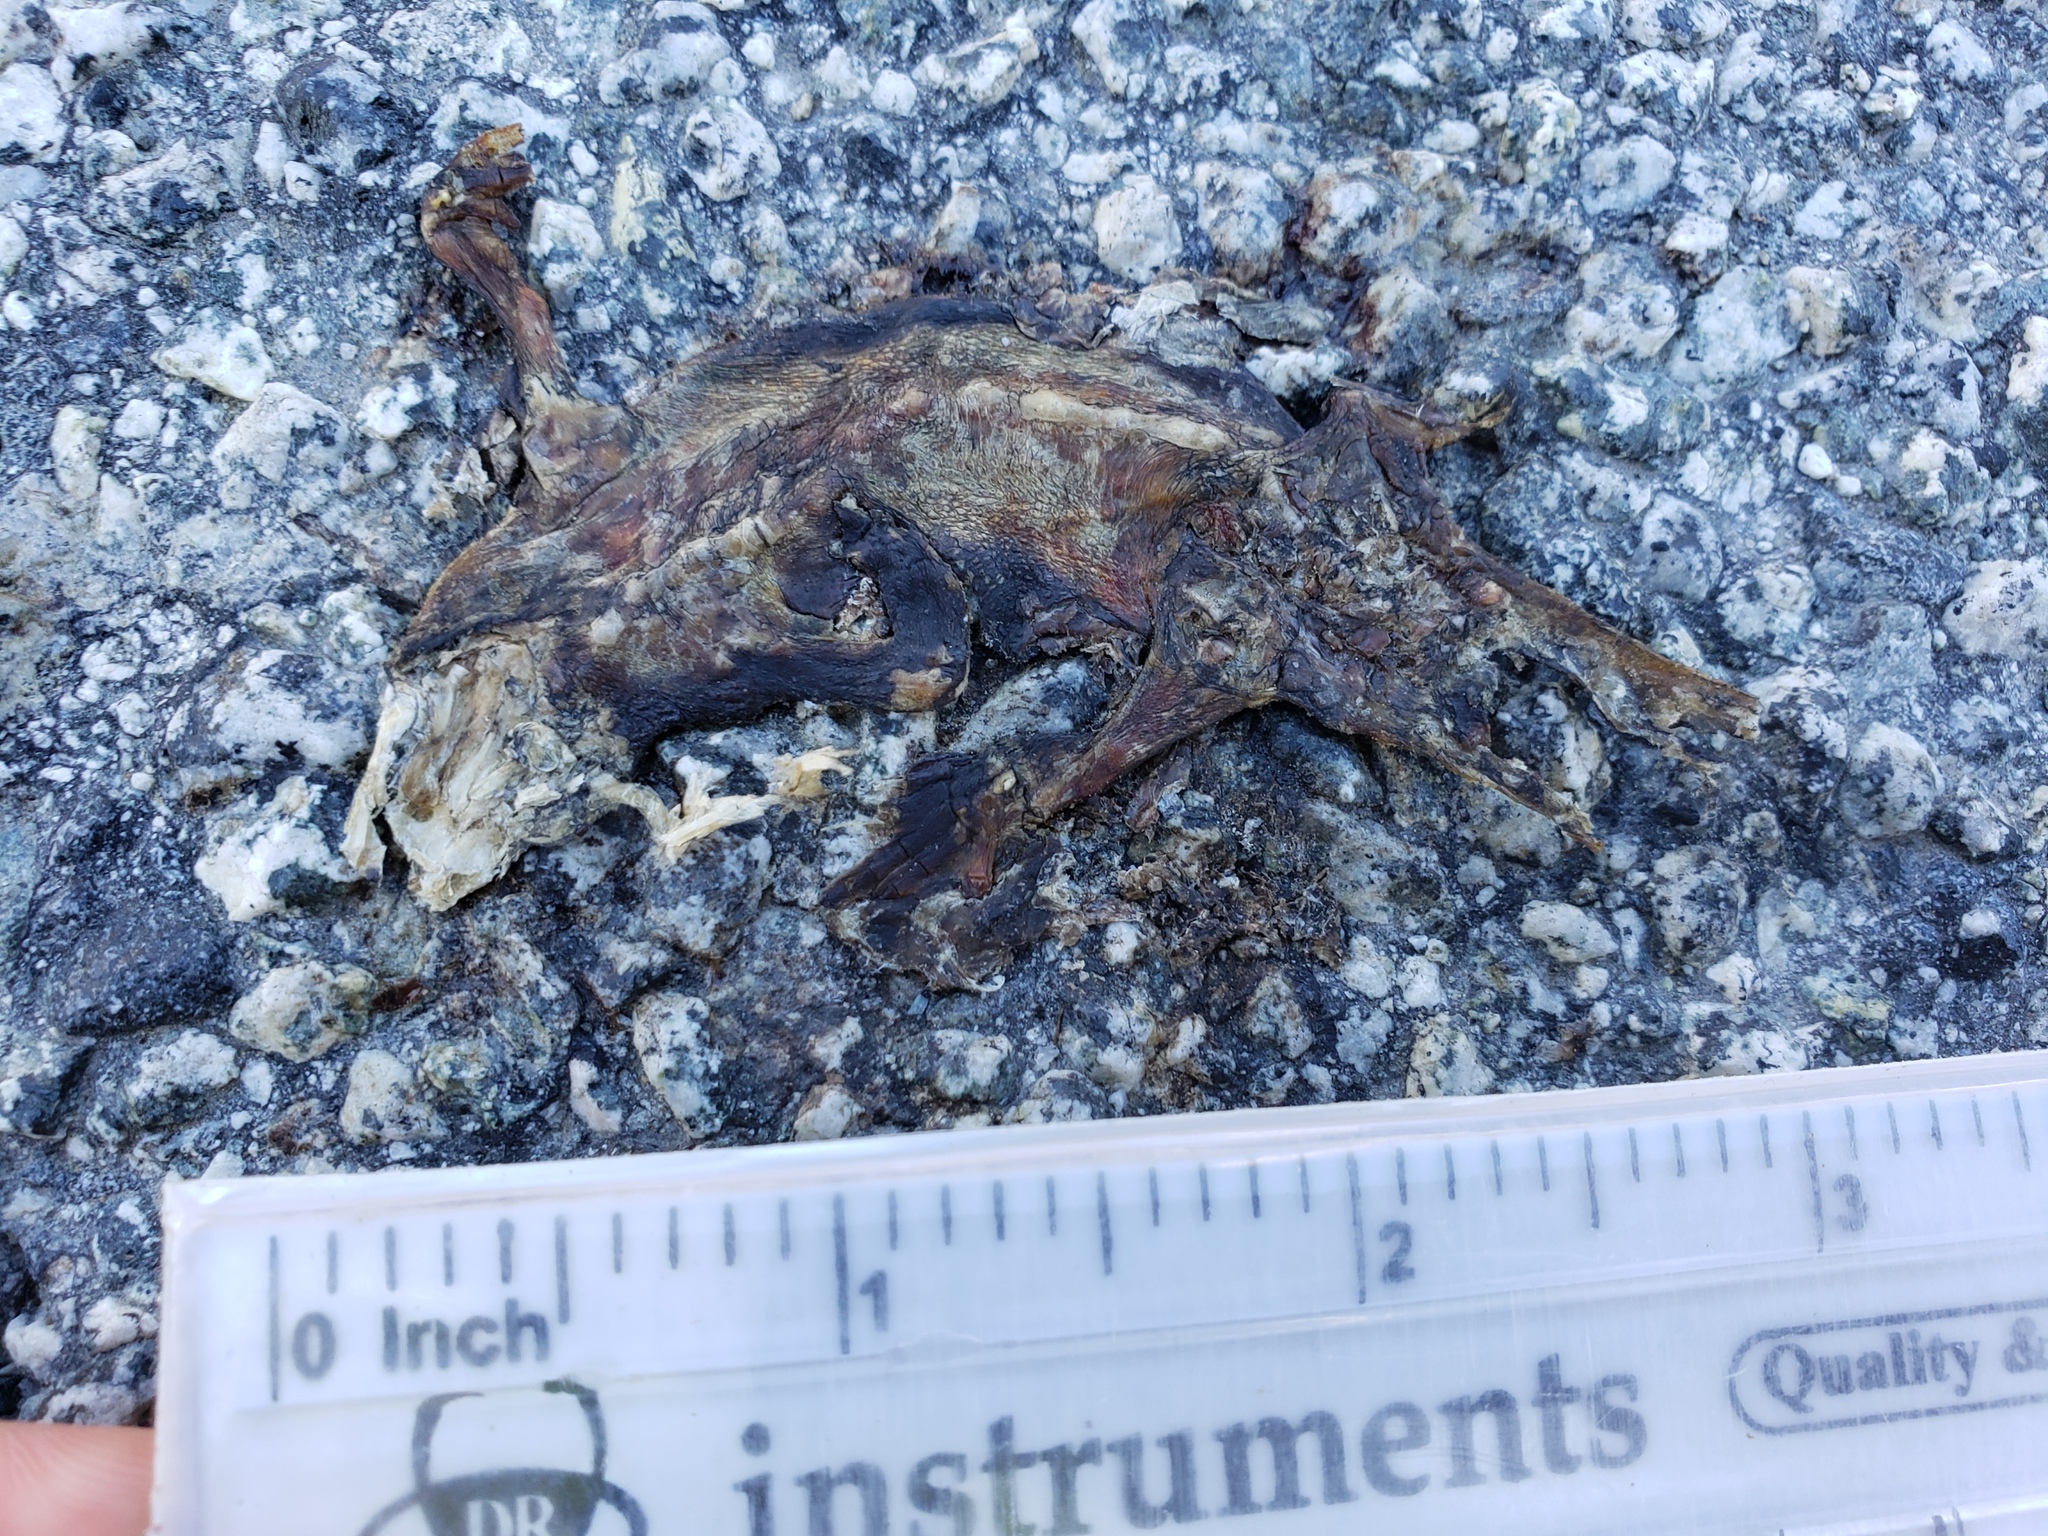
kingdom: Animalia
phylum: Chordata
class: Amphibia
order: Caudata
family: Salamandridae
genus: Taricha
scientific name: Taricha
